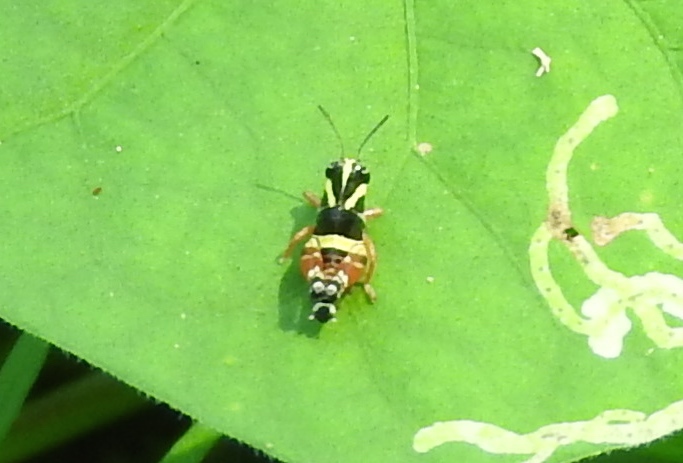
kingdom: Animalia
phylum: Arthropoda
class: Insecta
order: Orthoptera
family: Acrididae
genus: Aidemona
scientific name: Aidemona azteca
